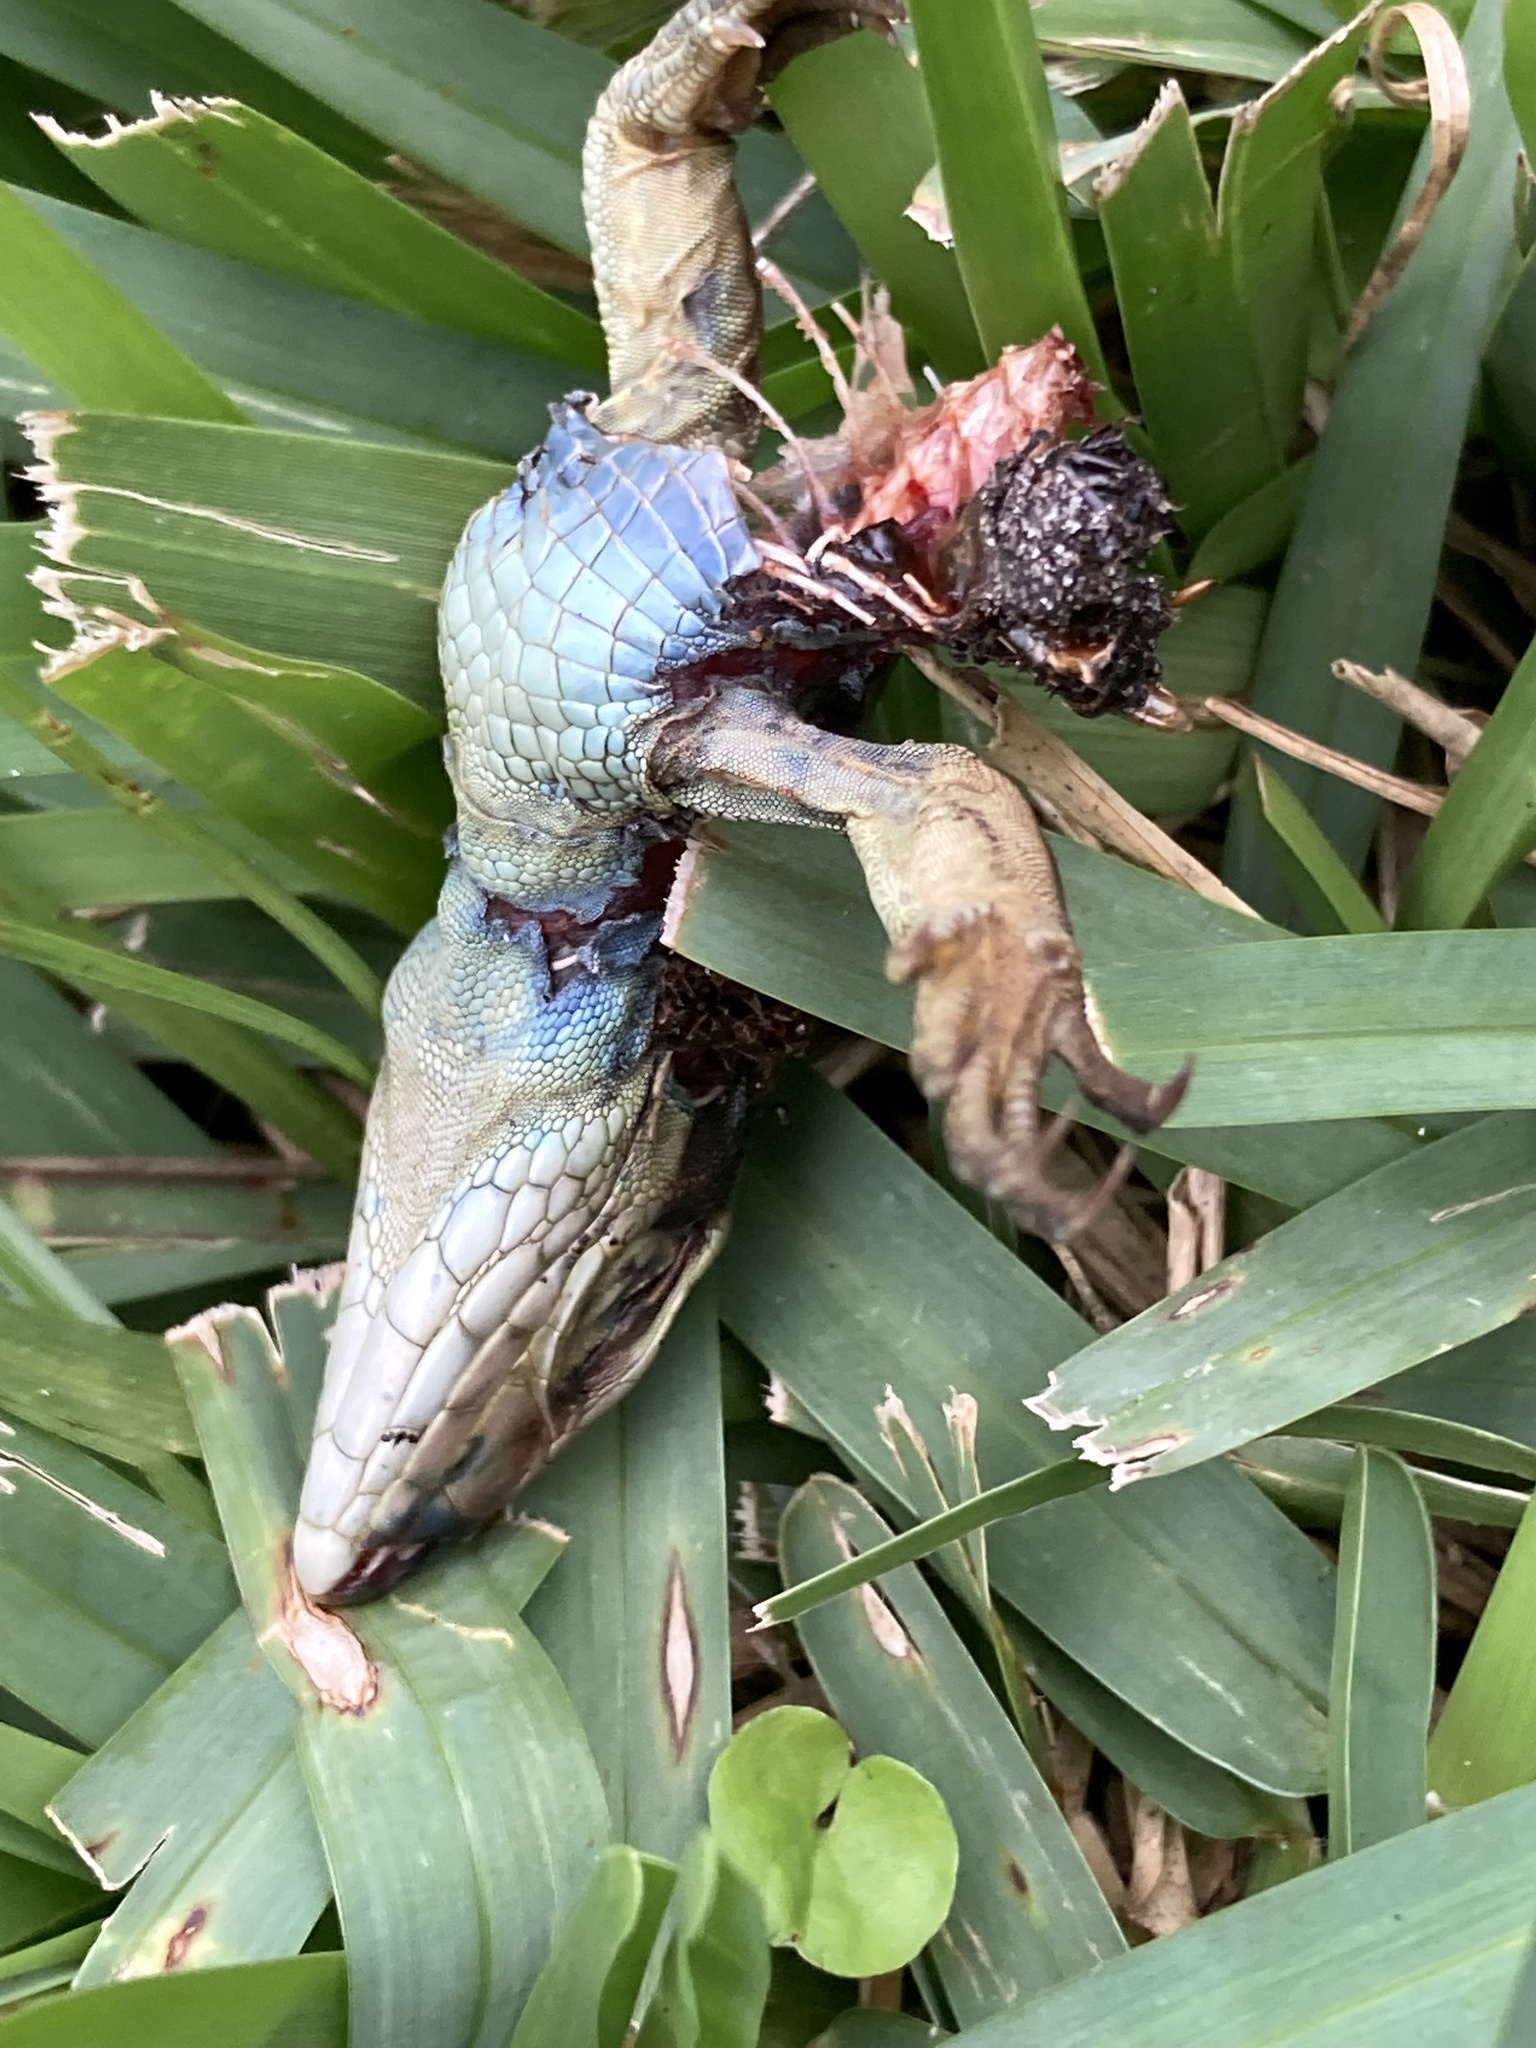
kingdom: Animalia
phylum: Chordata
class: Squamata
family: Teiidae
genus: Ameiva
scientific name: Ameiva ameiva
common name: Giant ameiva
